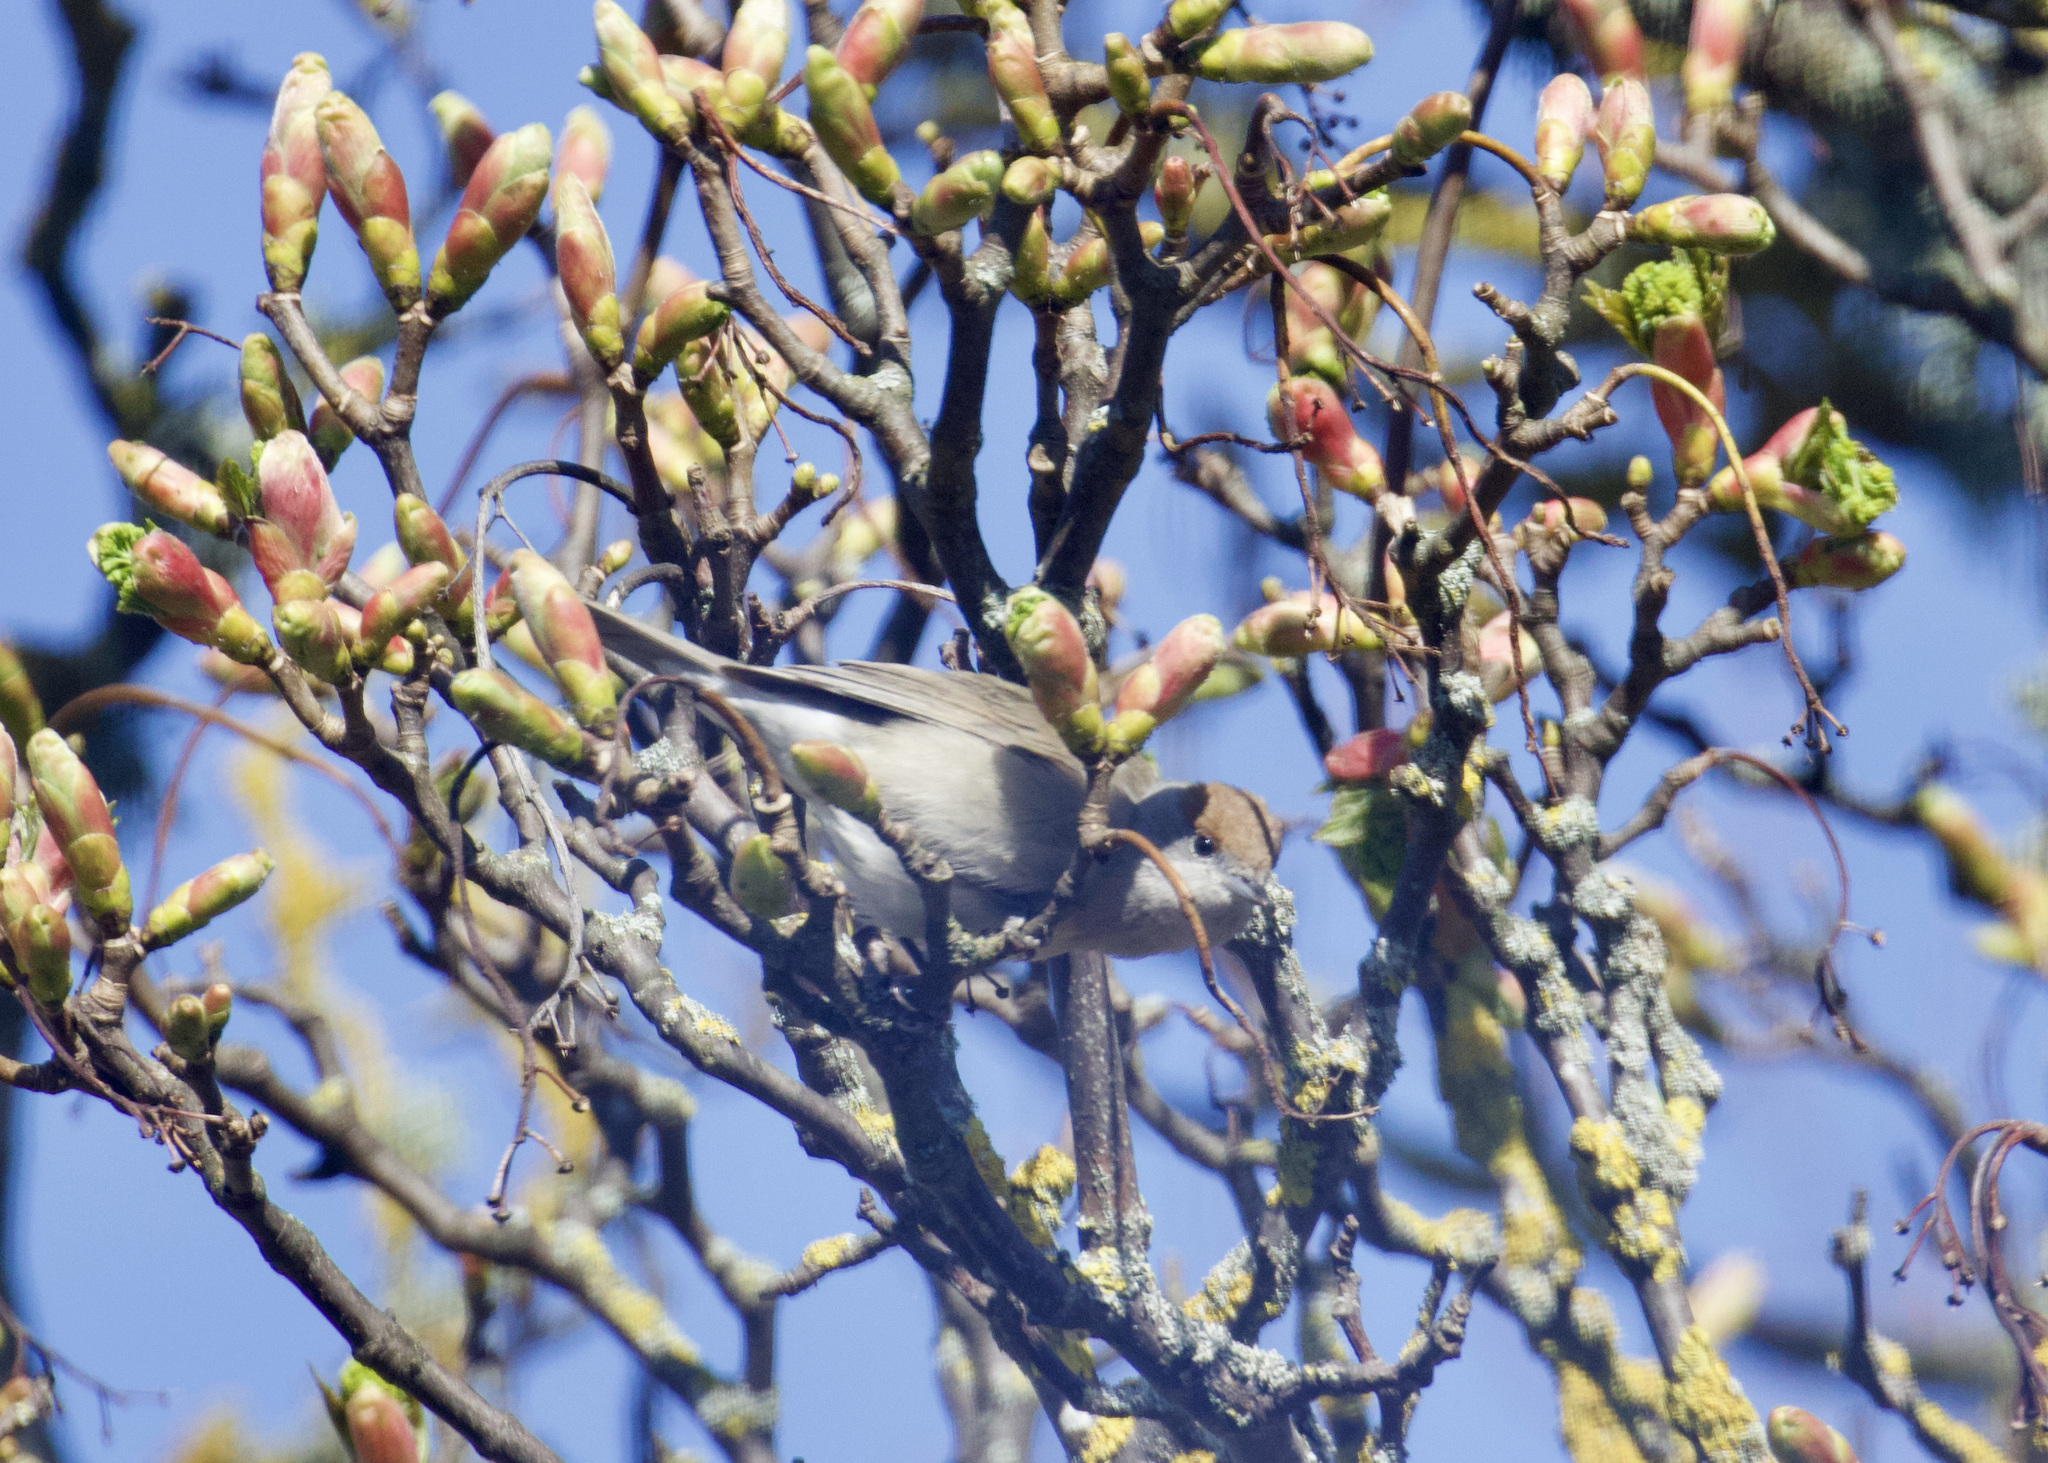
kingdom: Animalia
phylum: Chordata
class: Aves
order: Passeriformes
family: Sylviidae
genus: Sylvia
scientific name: Sylvia atricapilla
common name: Eurasian blackcap
